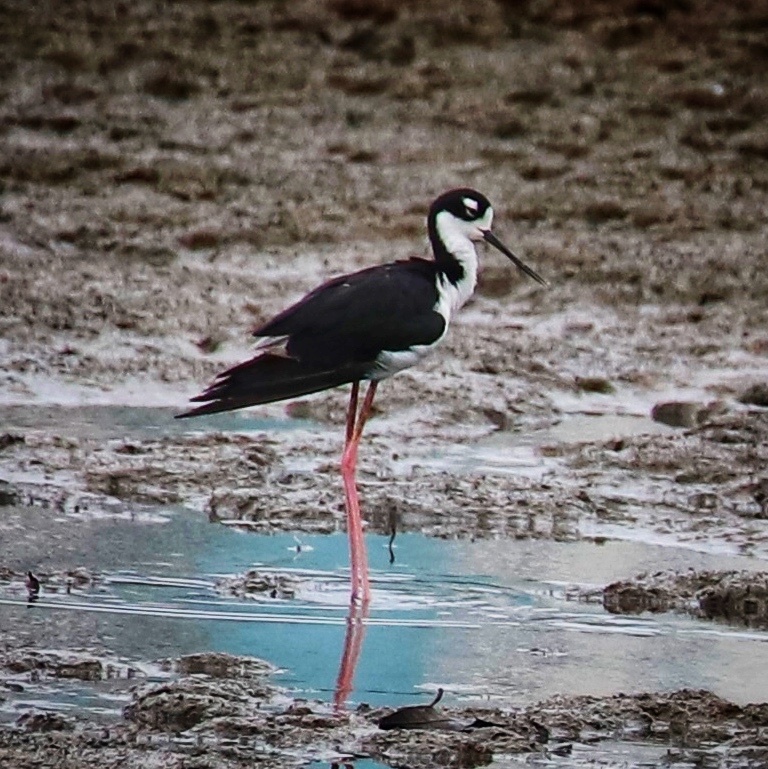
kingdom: Animalia
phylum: Chordata
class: Aves
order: Charadriiformes
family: Recurvirostridae
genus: Himantopus
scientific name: Himantopus mexicanus
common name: Black-necked stilt
